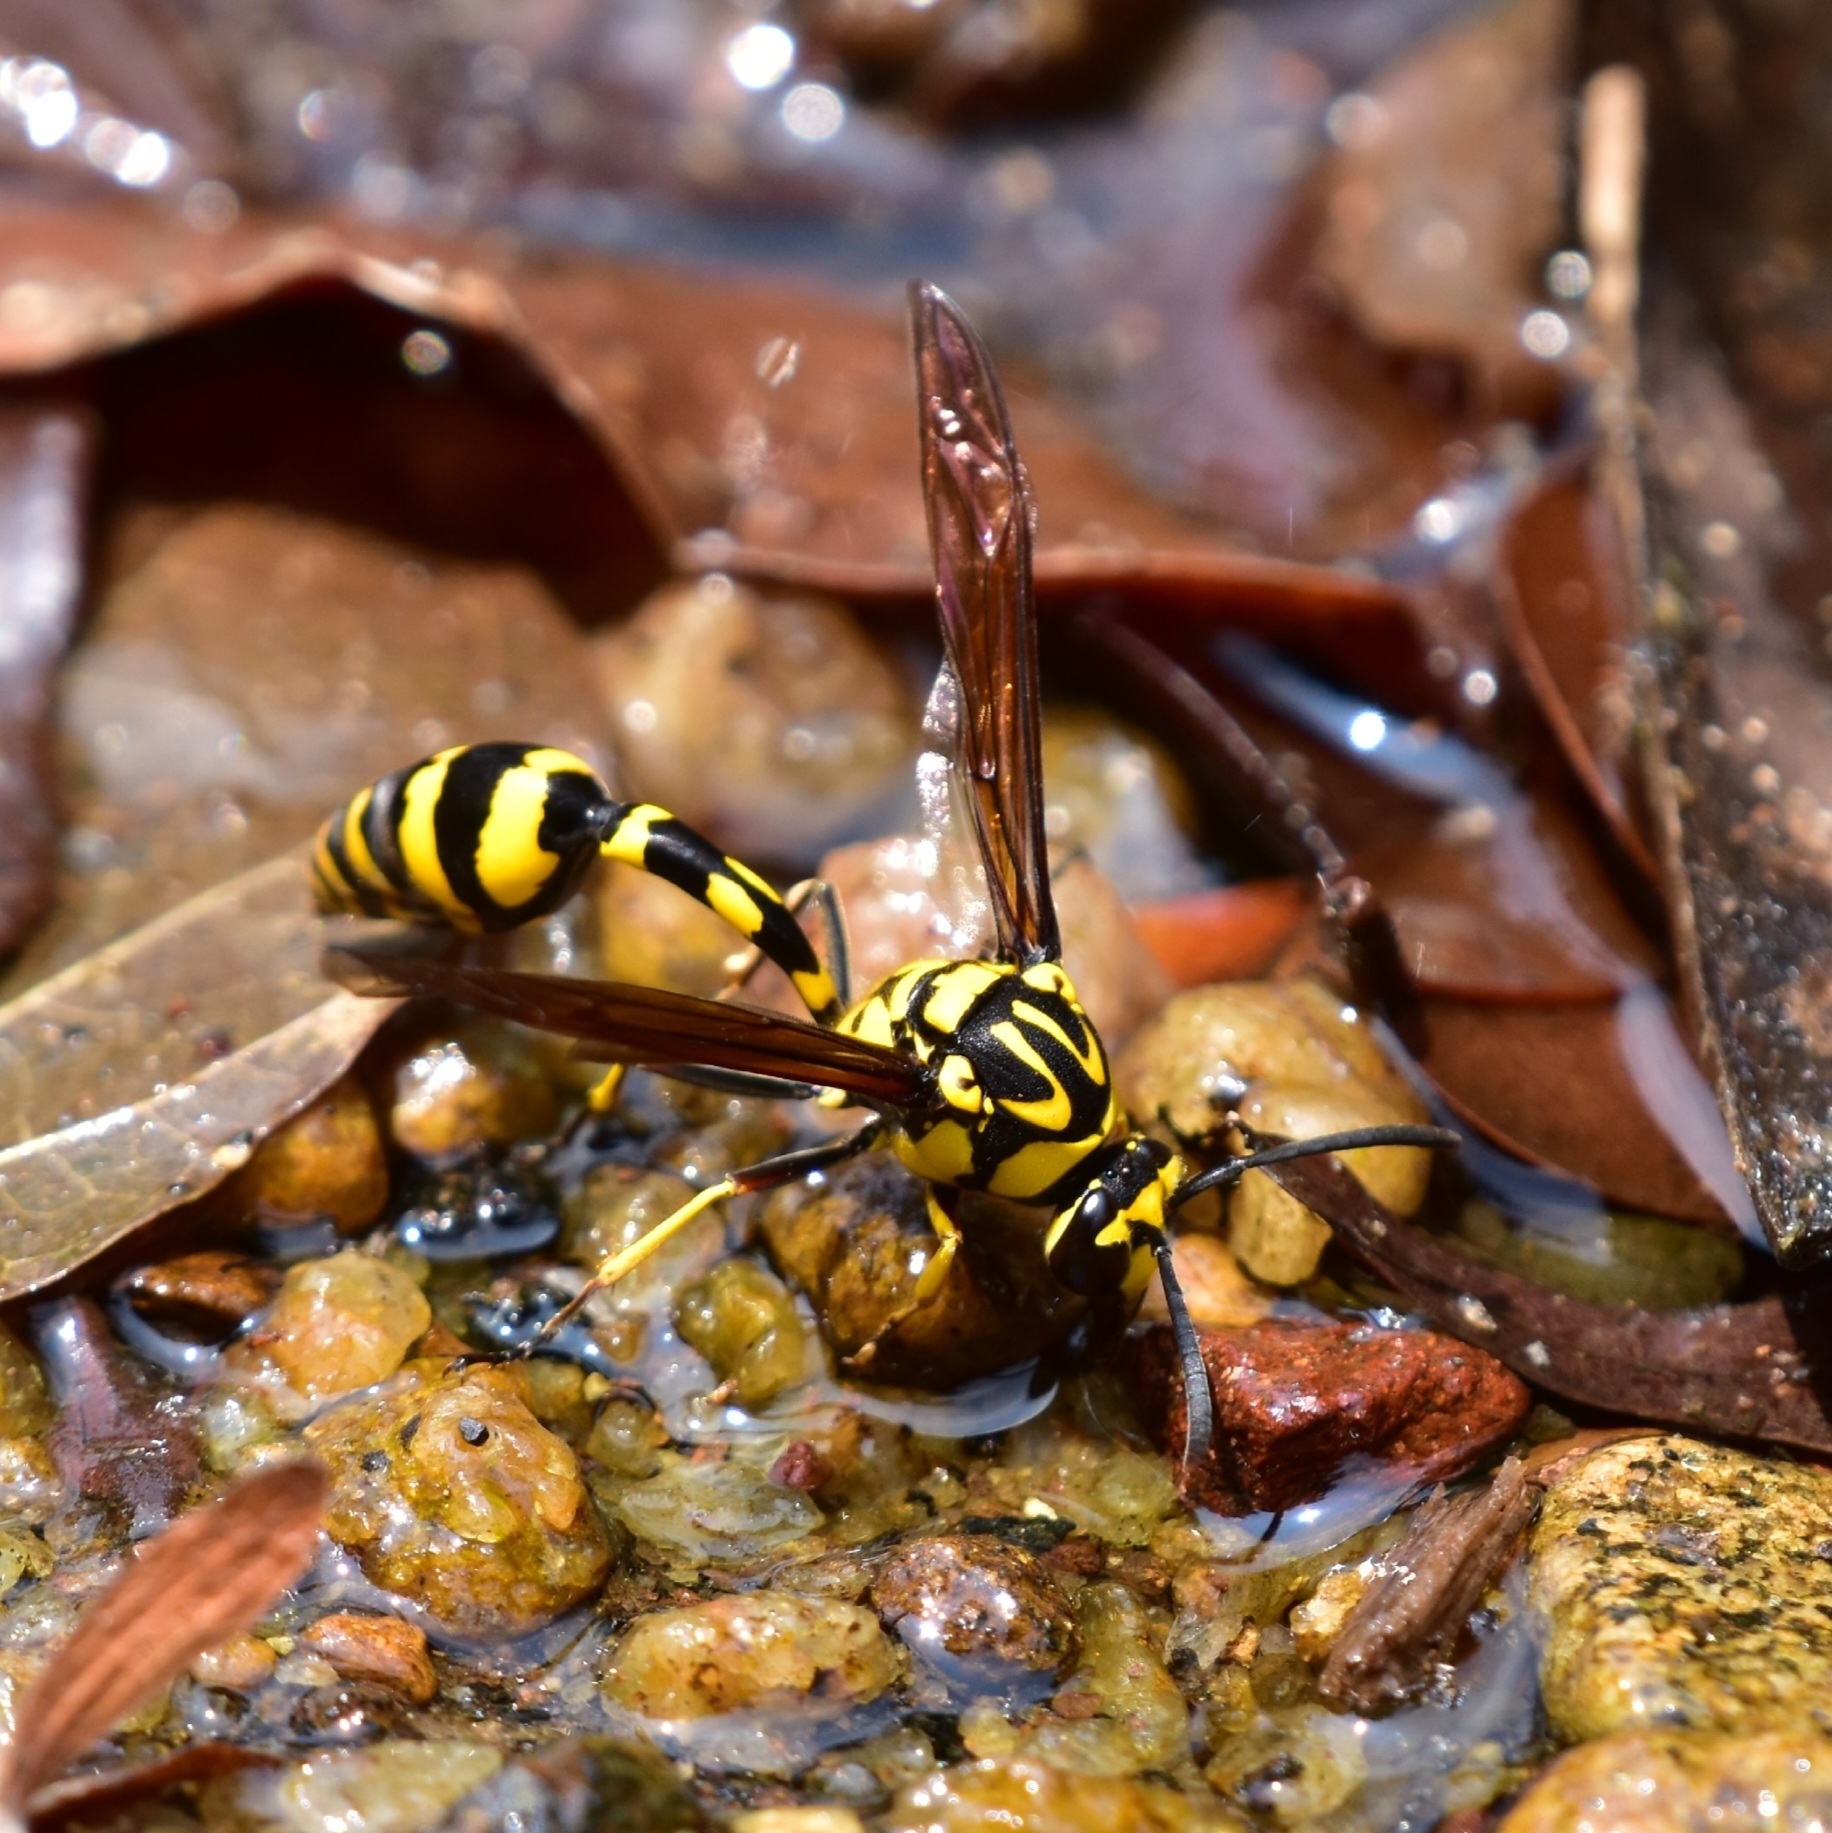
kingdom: Animalia
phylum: Arthropoda
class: Insecta
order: Hymenoptera
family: Eumenidae
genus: Phimenes
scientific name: Phimenes flavopictus
